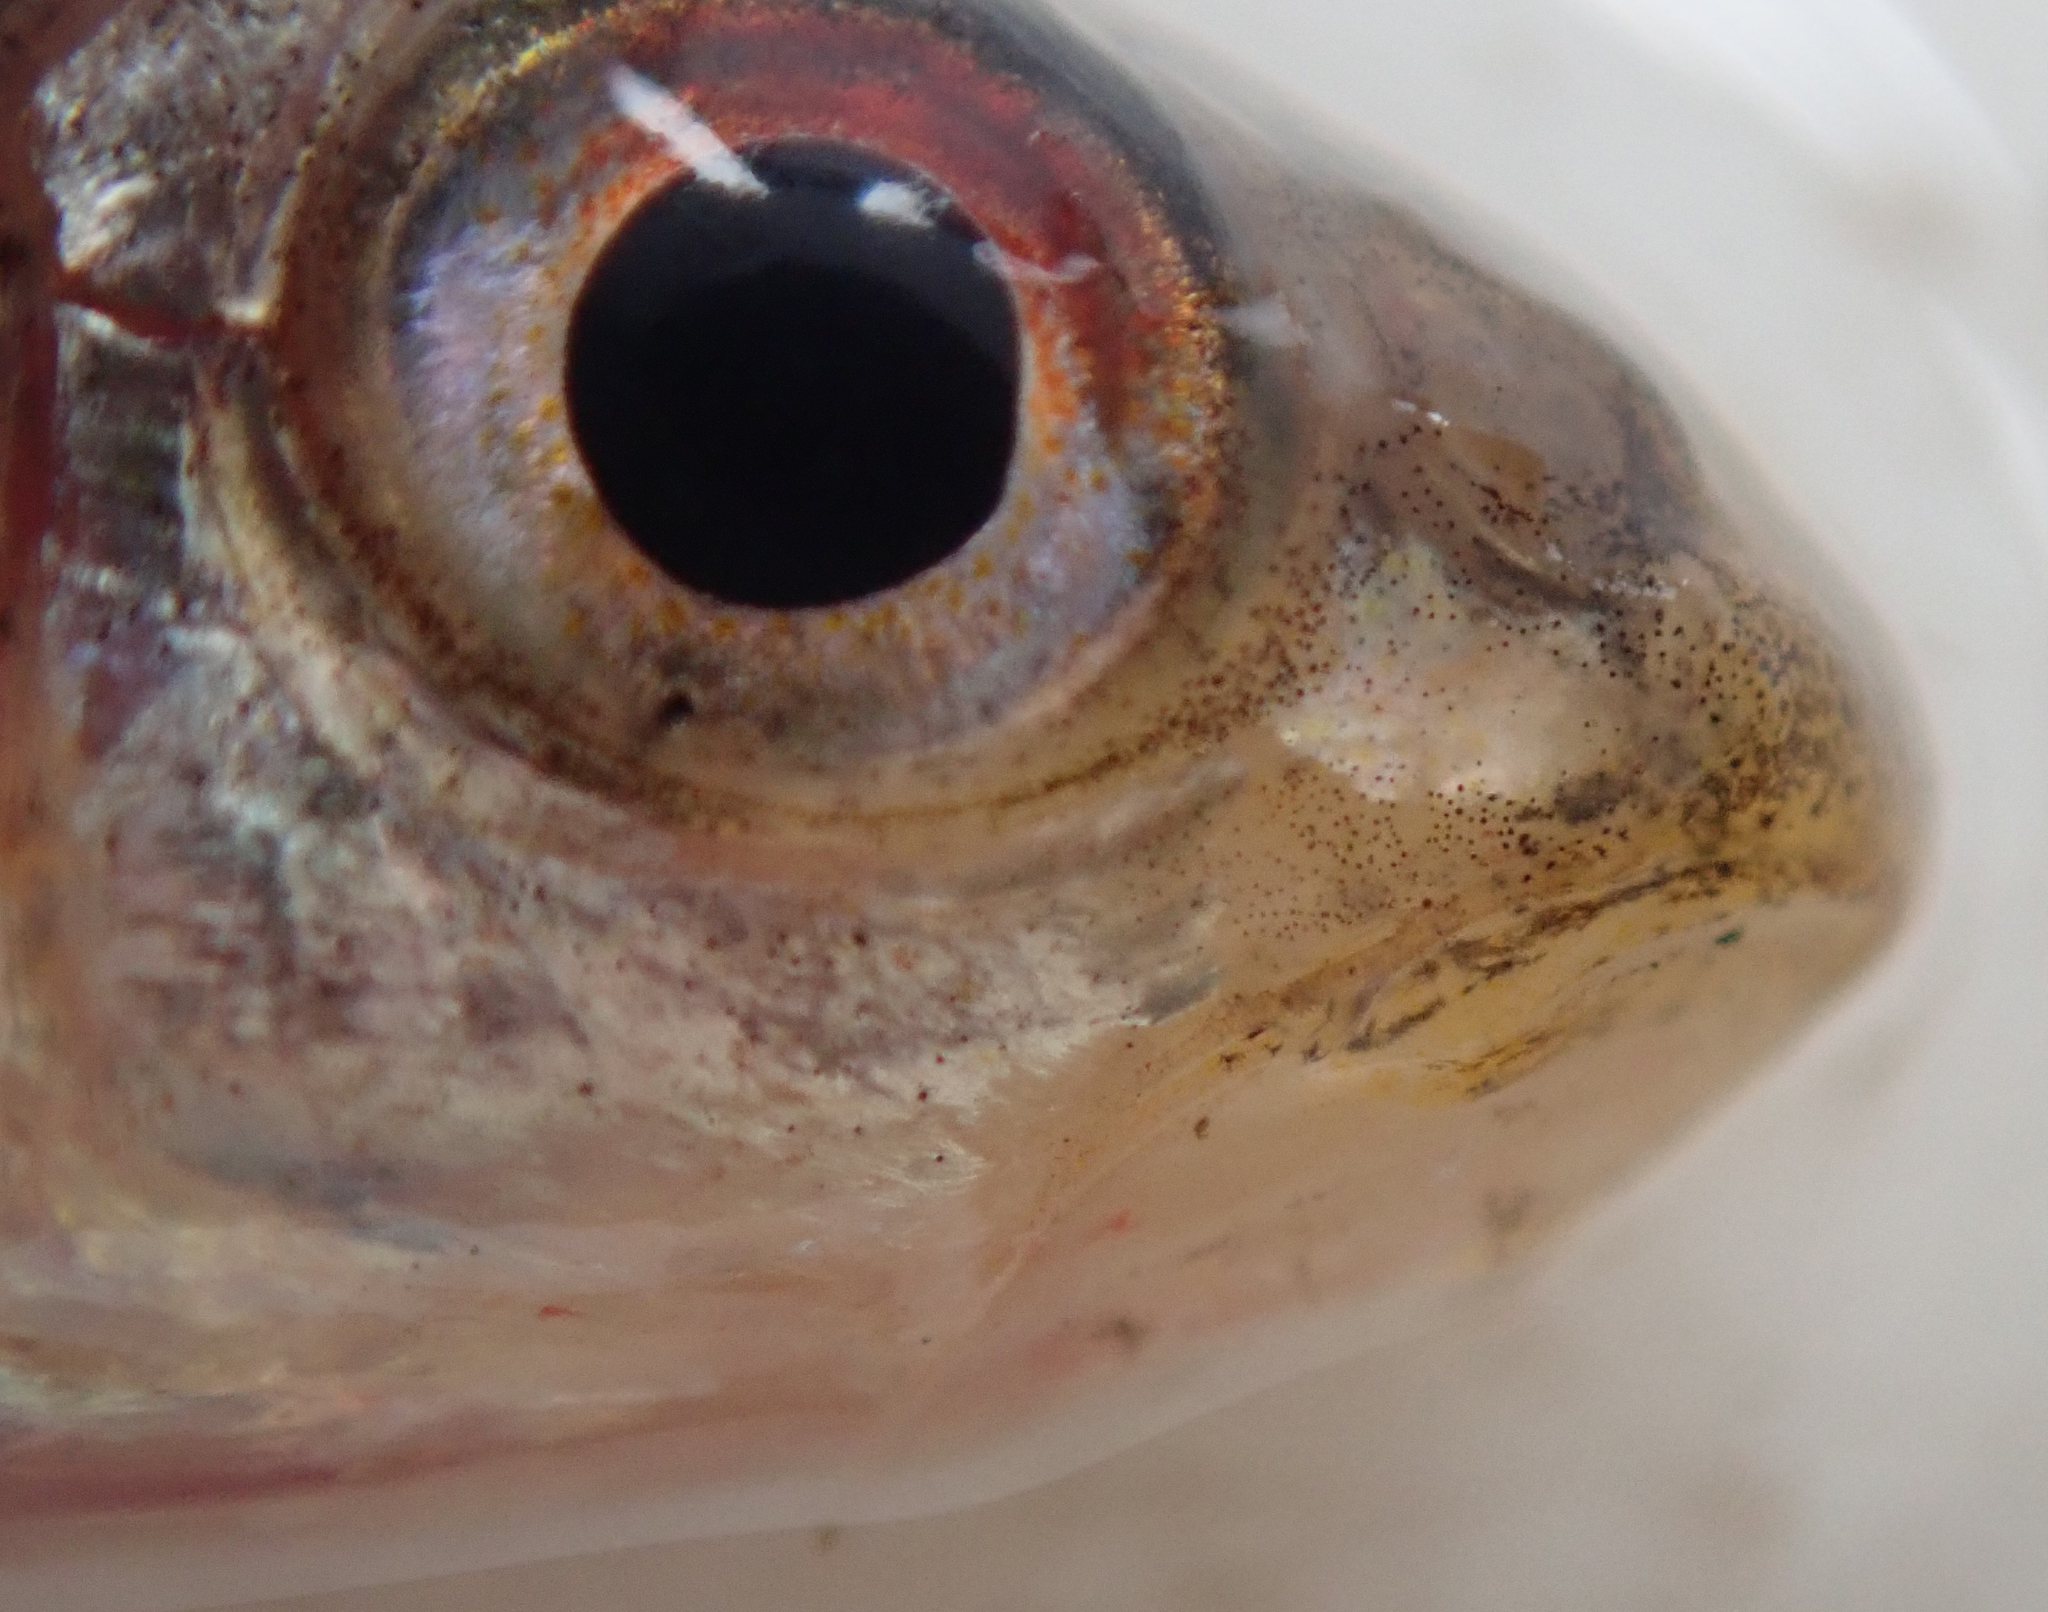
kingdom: Animalia
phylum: Chordata
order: Cypriniformes
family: Cyprinidae
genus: Enteromius
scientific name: Enteromius fasciolatus
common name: Red barb
